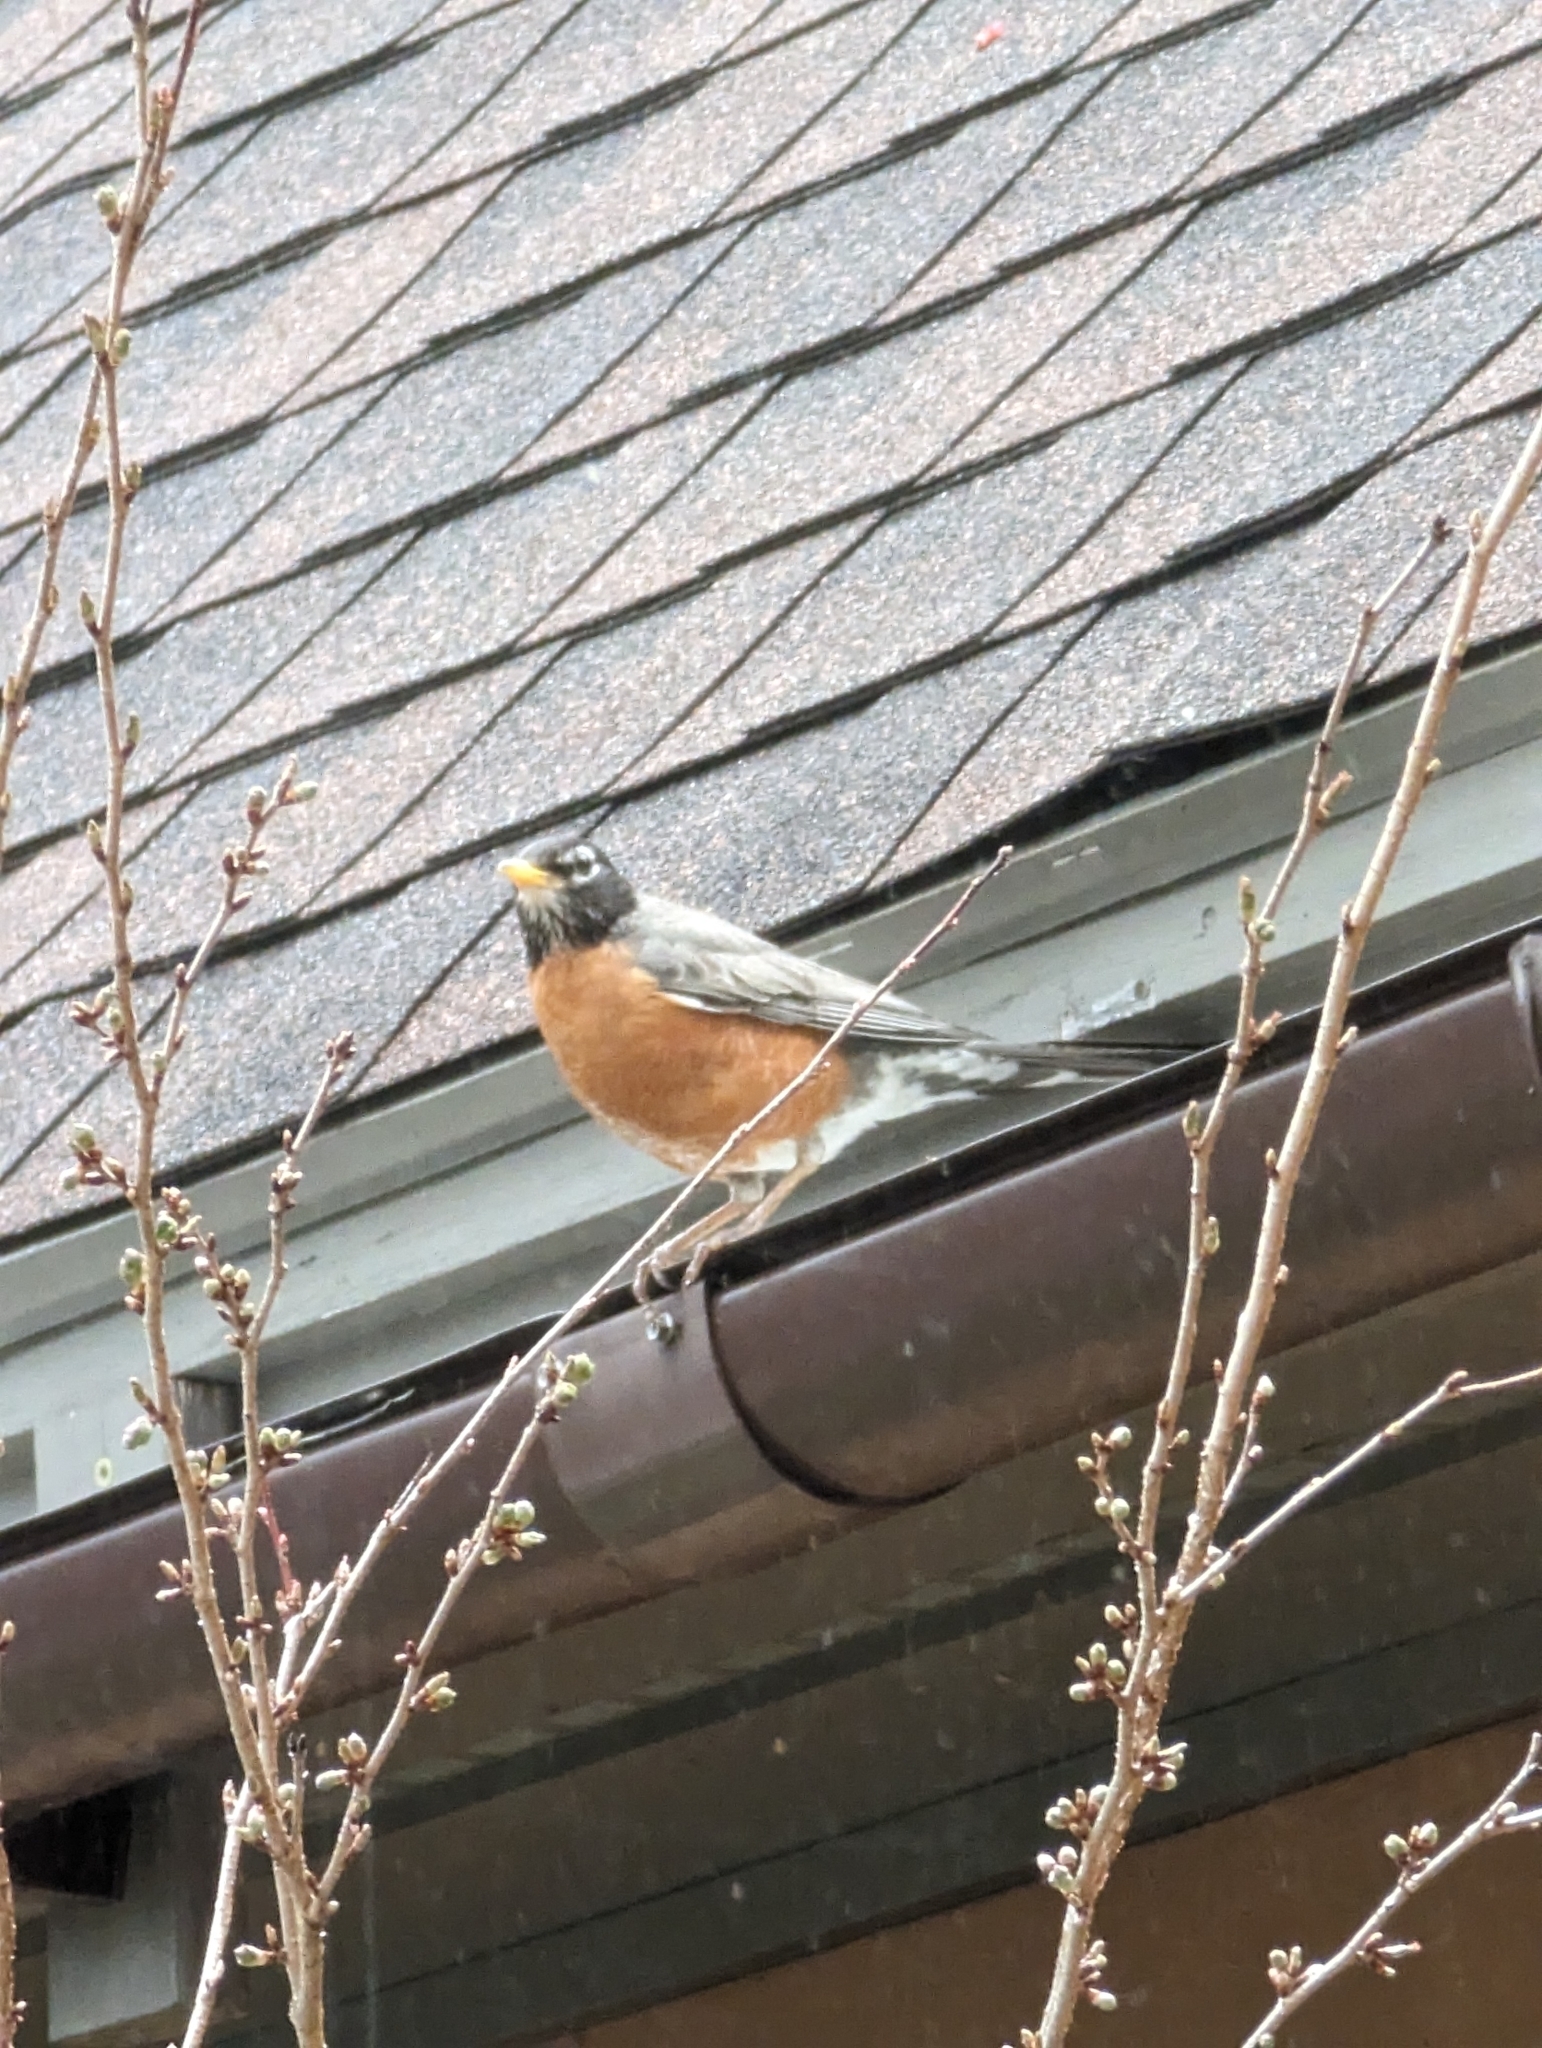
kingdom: Animalia
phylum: Chordata
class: Aves
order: Passeriformes
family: Turdidae
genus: Turdus
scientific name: Turdus migratorius
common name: American robin
